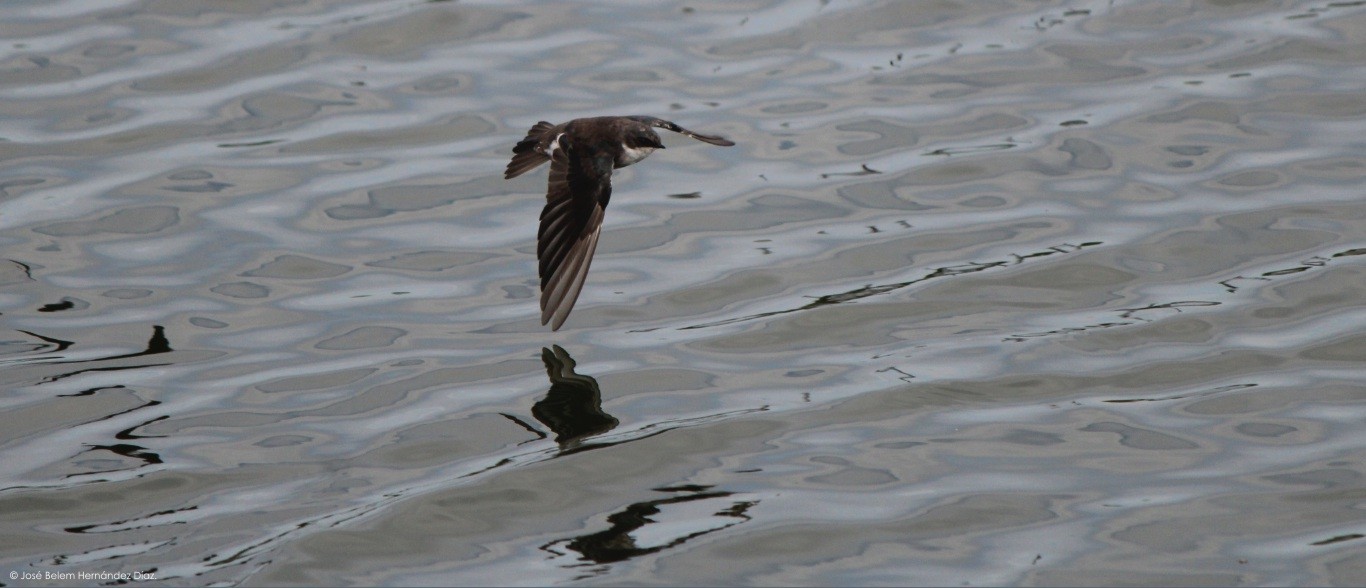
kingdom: Animalia
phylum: Chordata
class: Aves
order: Passeriformes
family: Hirundinidae
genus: Tachycineta
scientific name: Tachycineta bicolor
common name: Tree swallow
